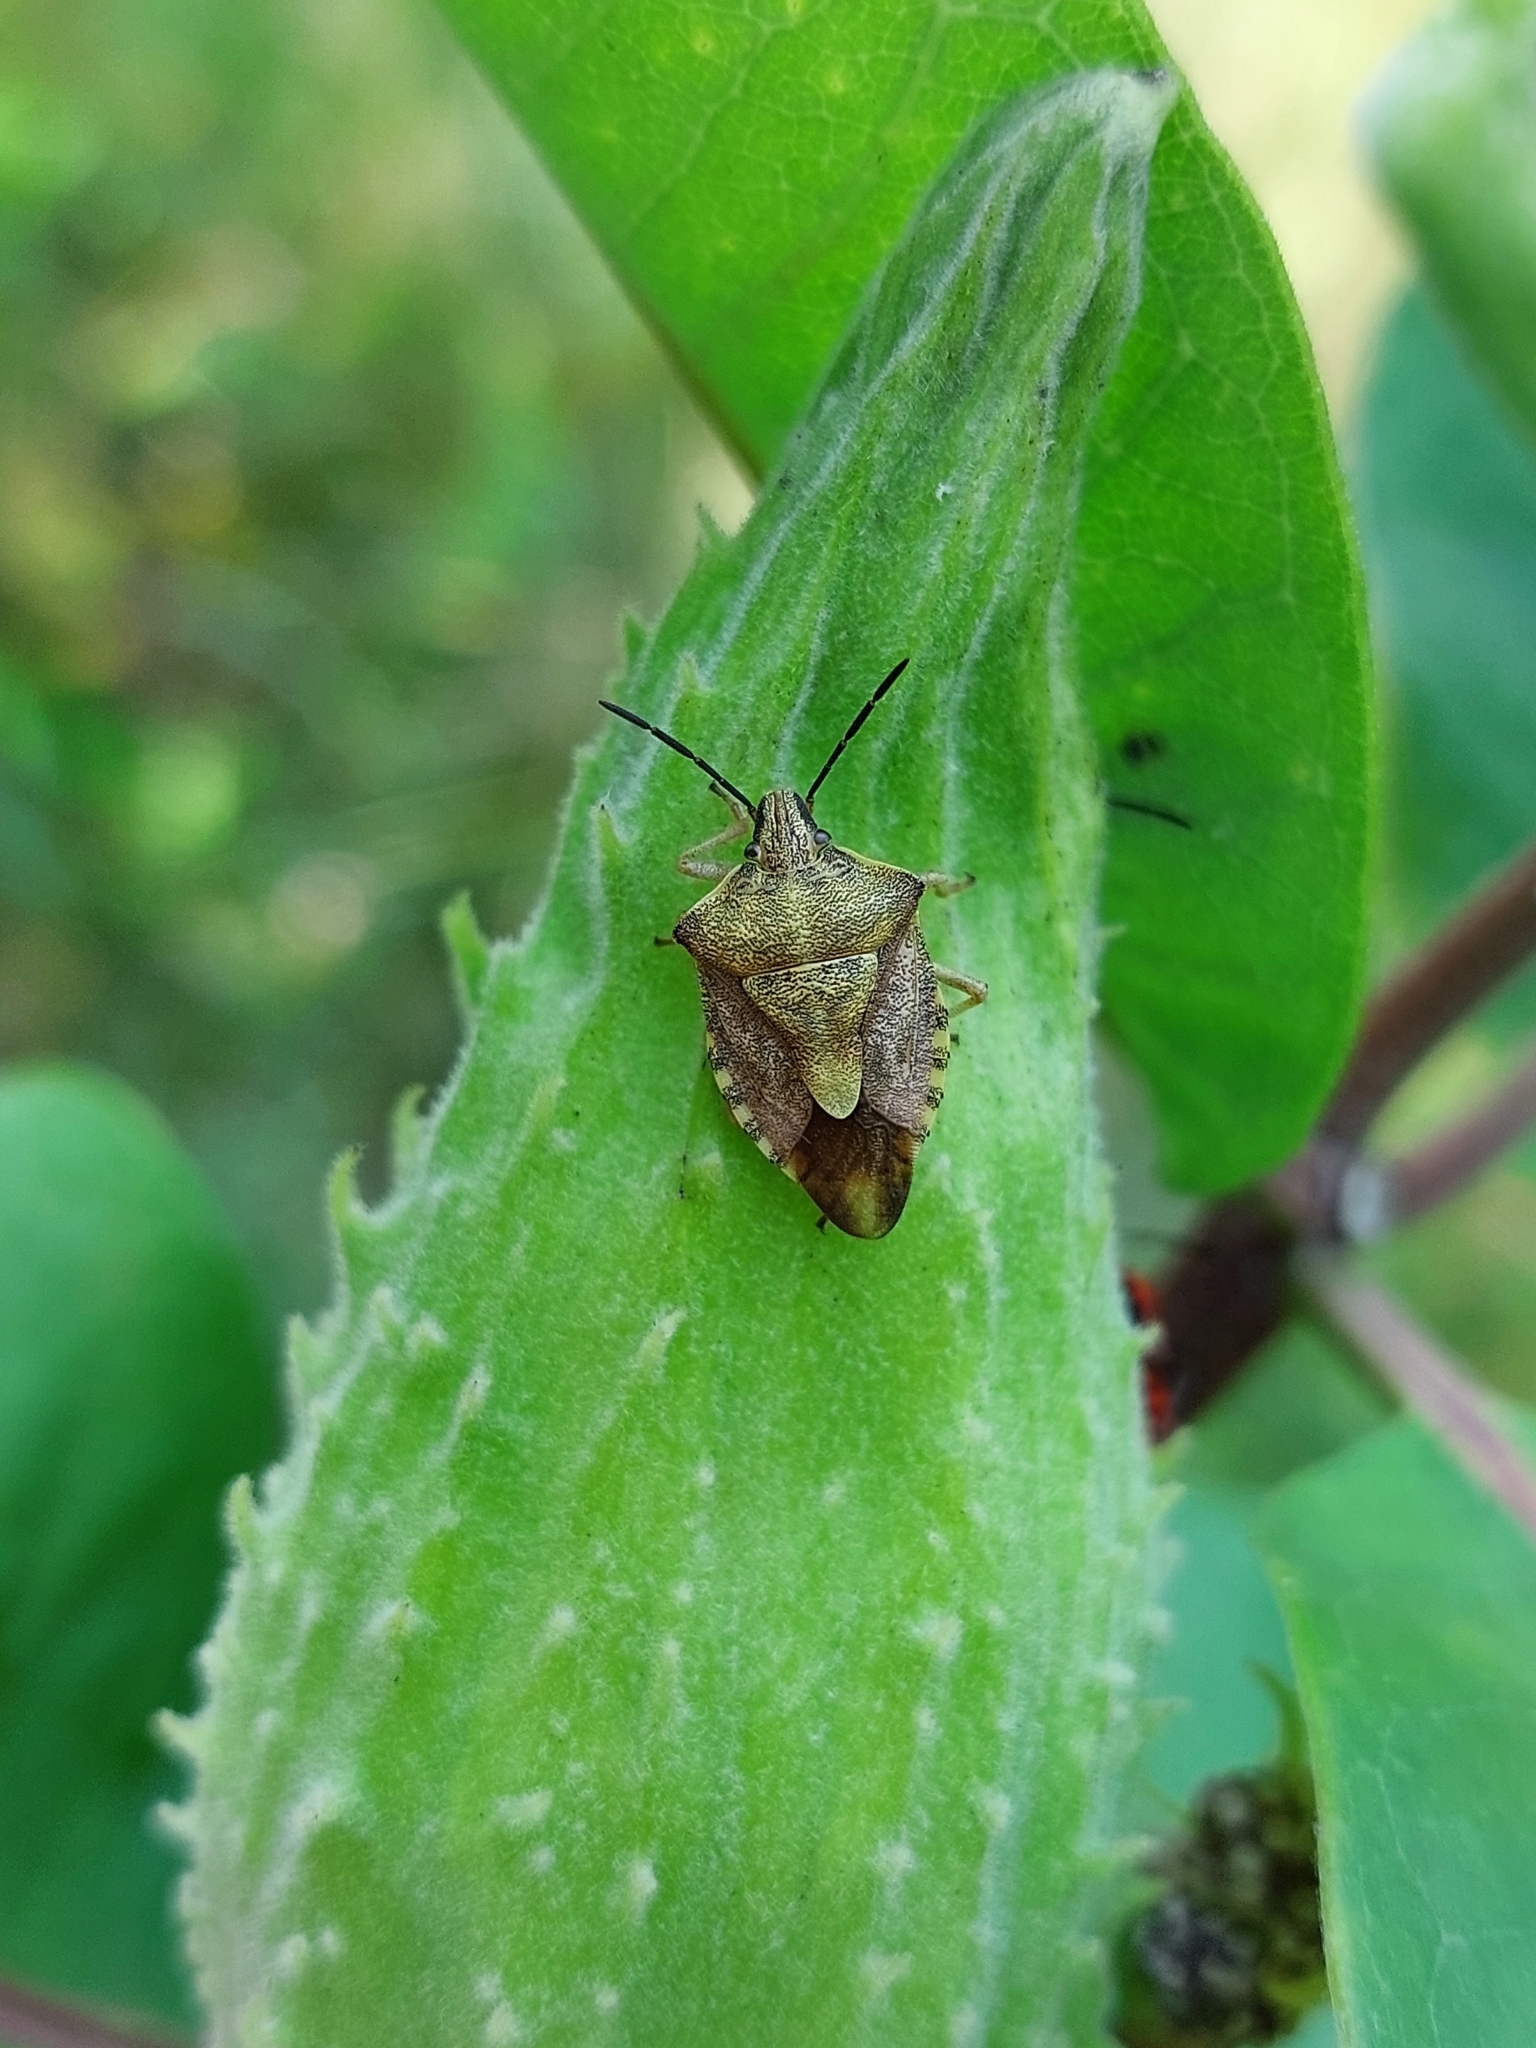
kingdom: Animalia
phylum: Arthropoda
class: Insecta
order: Hemiptera
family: Pentatomidae
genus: Carpocoris
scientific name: Carpocoris purpureipennis
